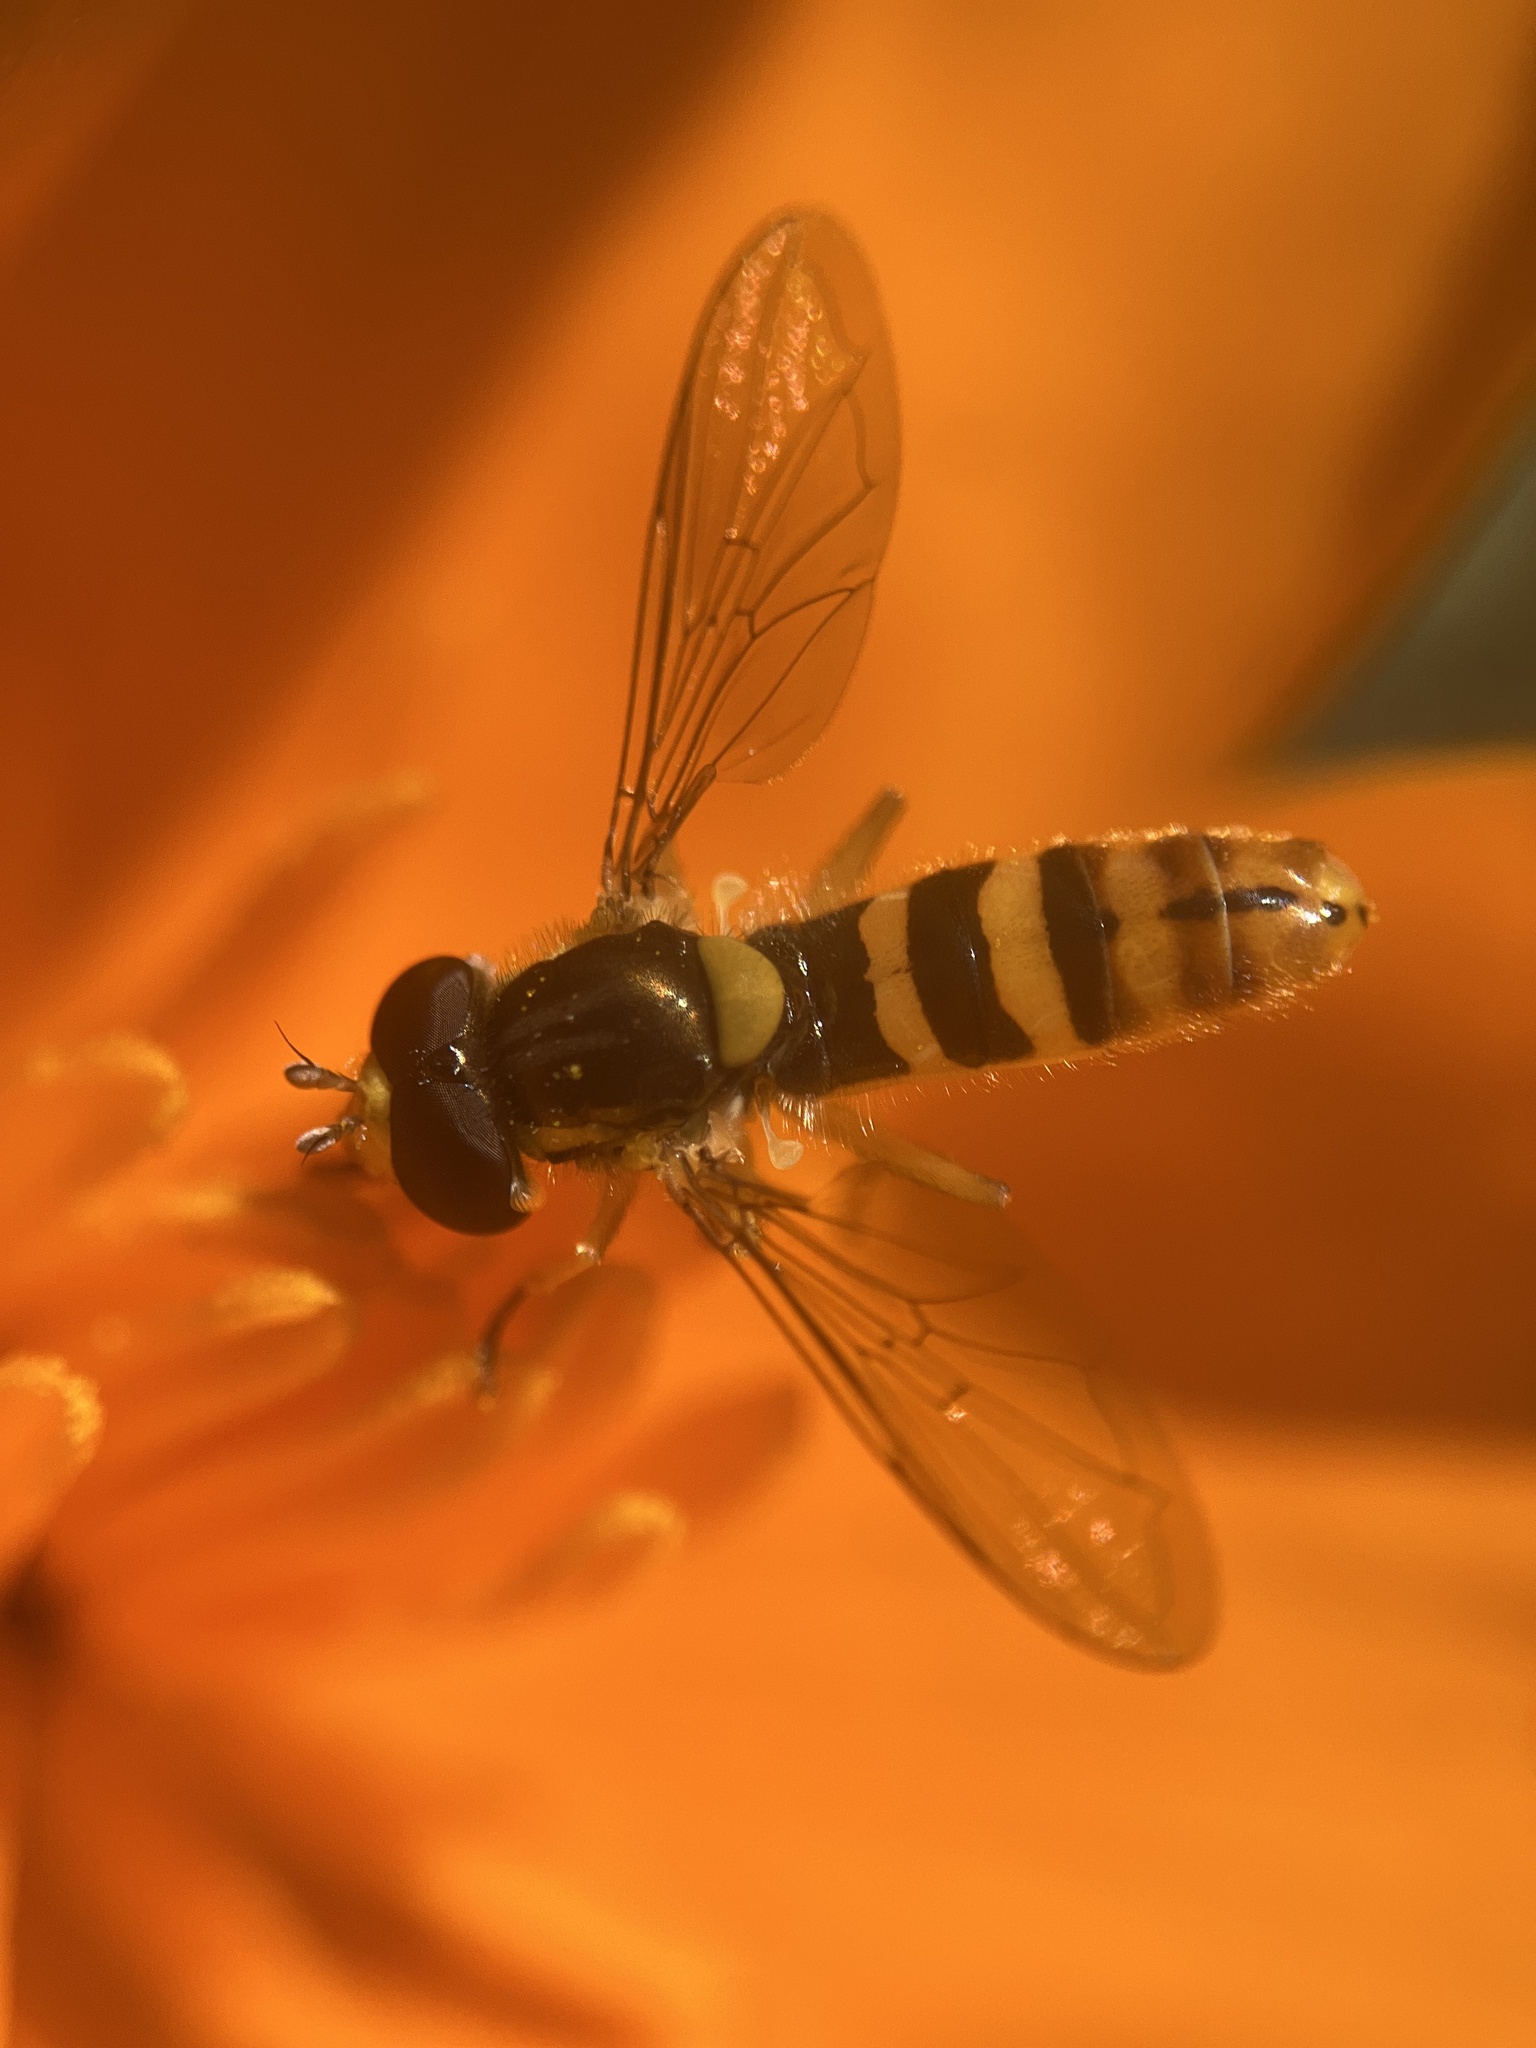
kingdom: Animalia
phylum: Arthropoda
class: Insecta
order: Diptera
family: Syrphidae
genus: Sphaerophoria
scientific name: Sphaerophoria sulphuripes
